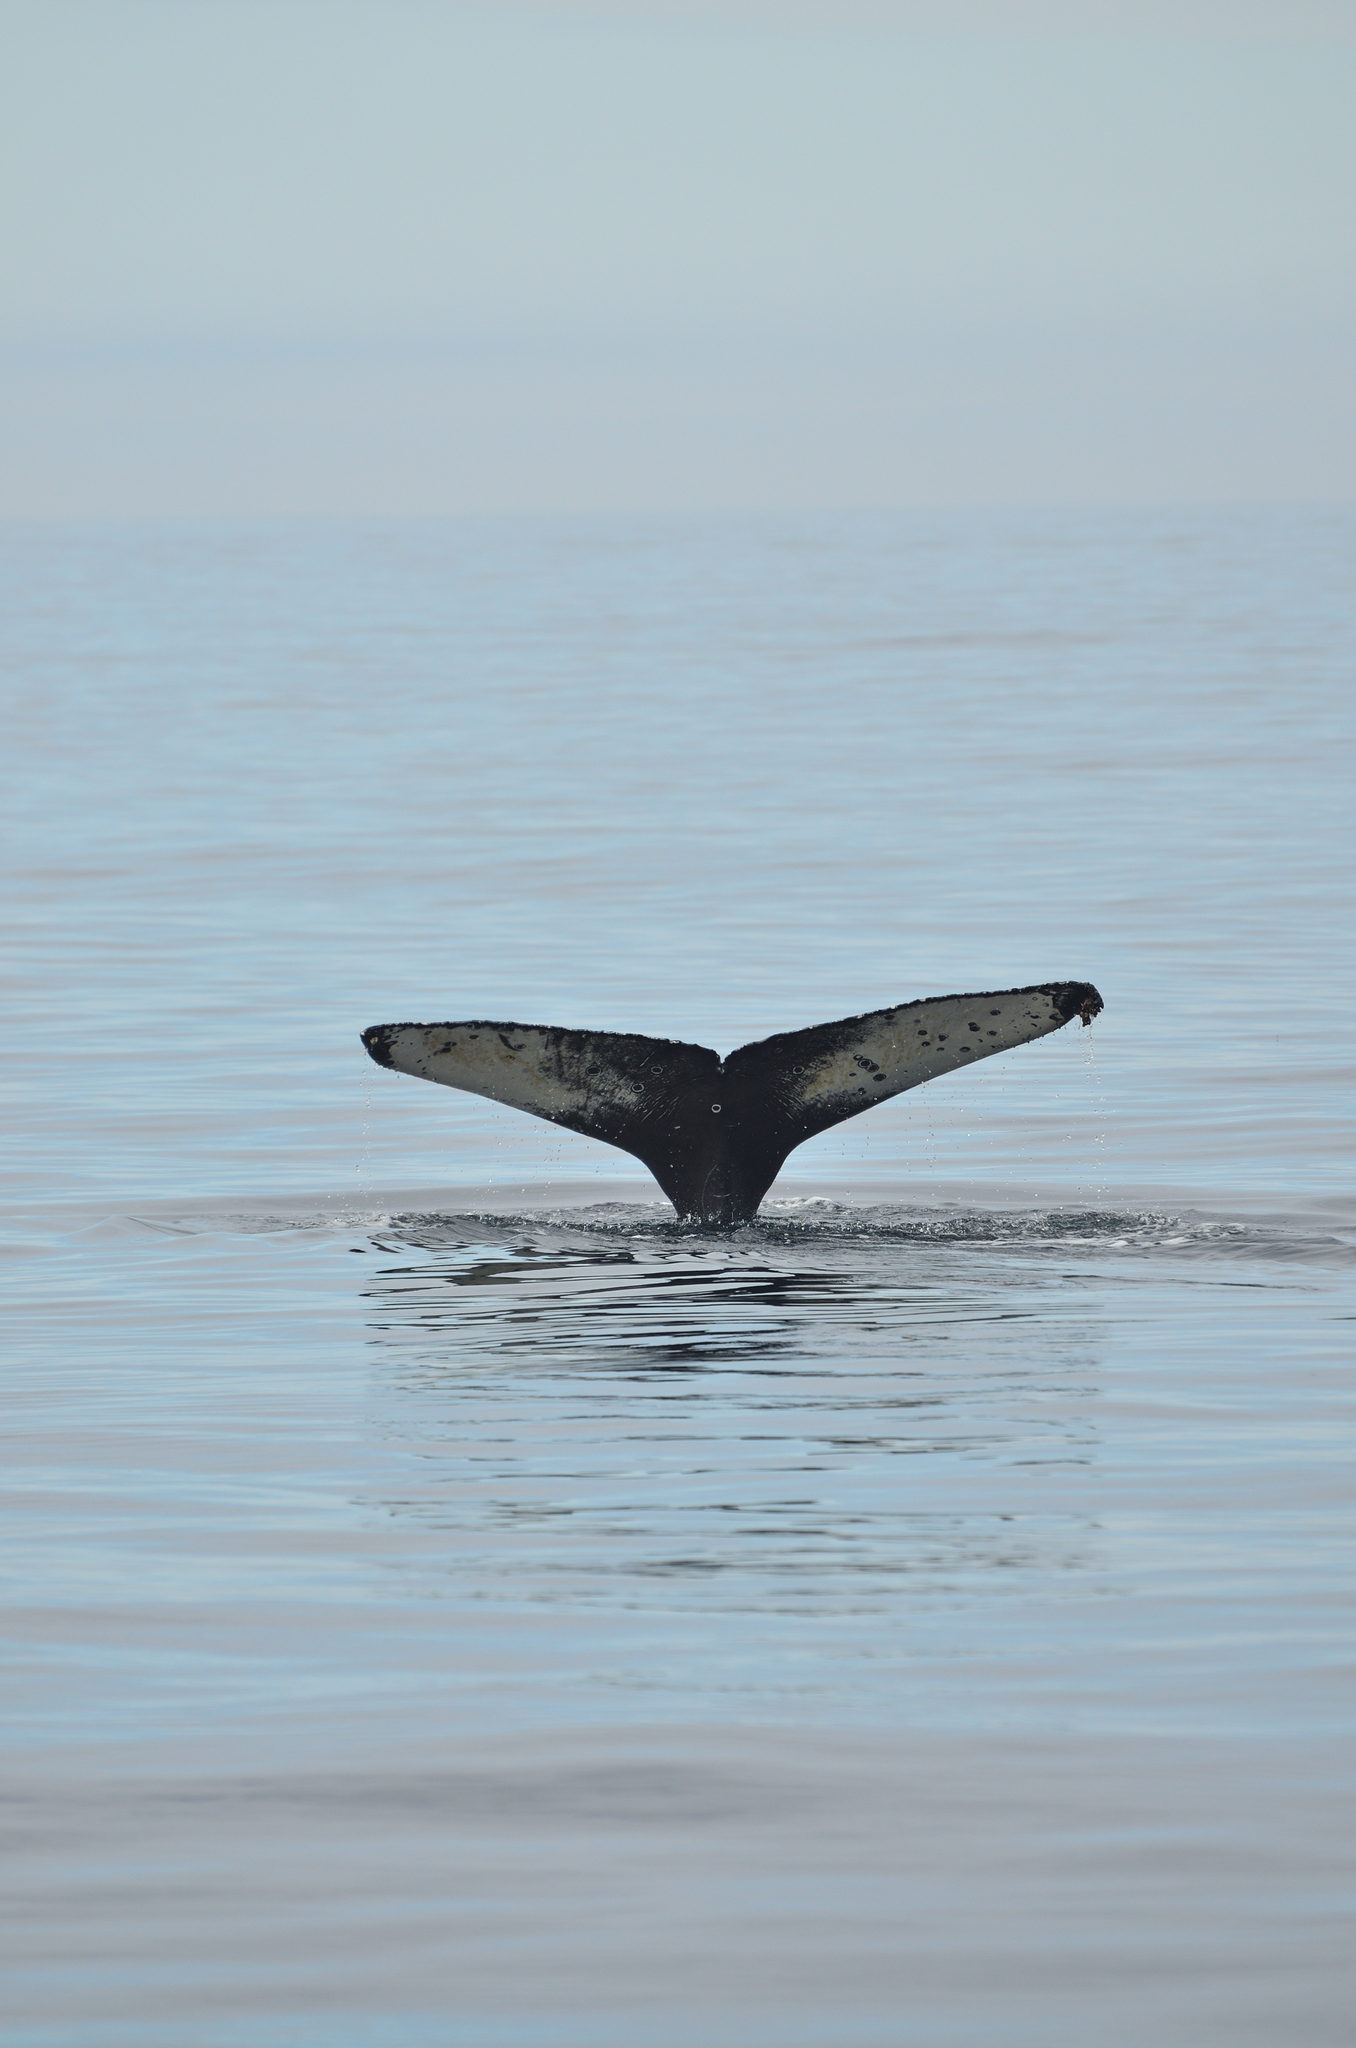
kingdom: Animalia
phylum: Chordata
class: Mammalia
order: Cetacea
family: Balaenopteridae
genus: Megaptera
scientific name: Megaptera novaeangliae
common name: Humpback whale
